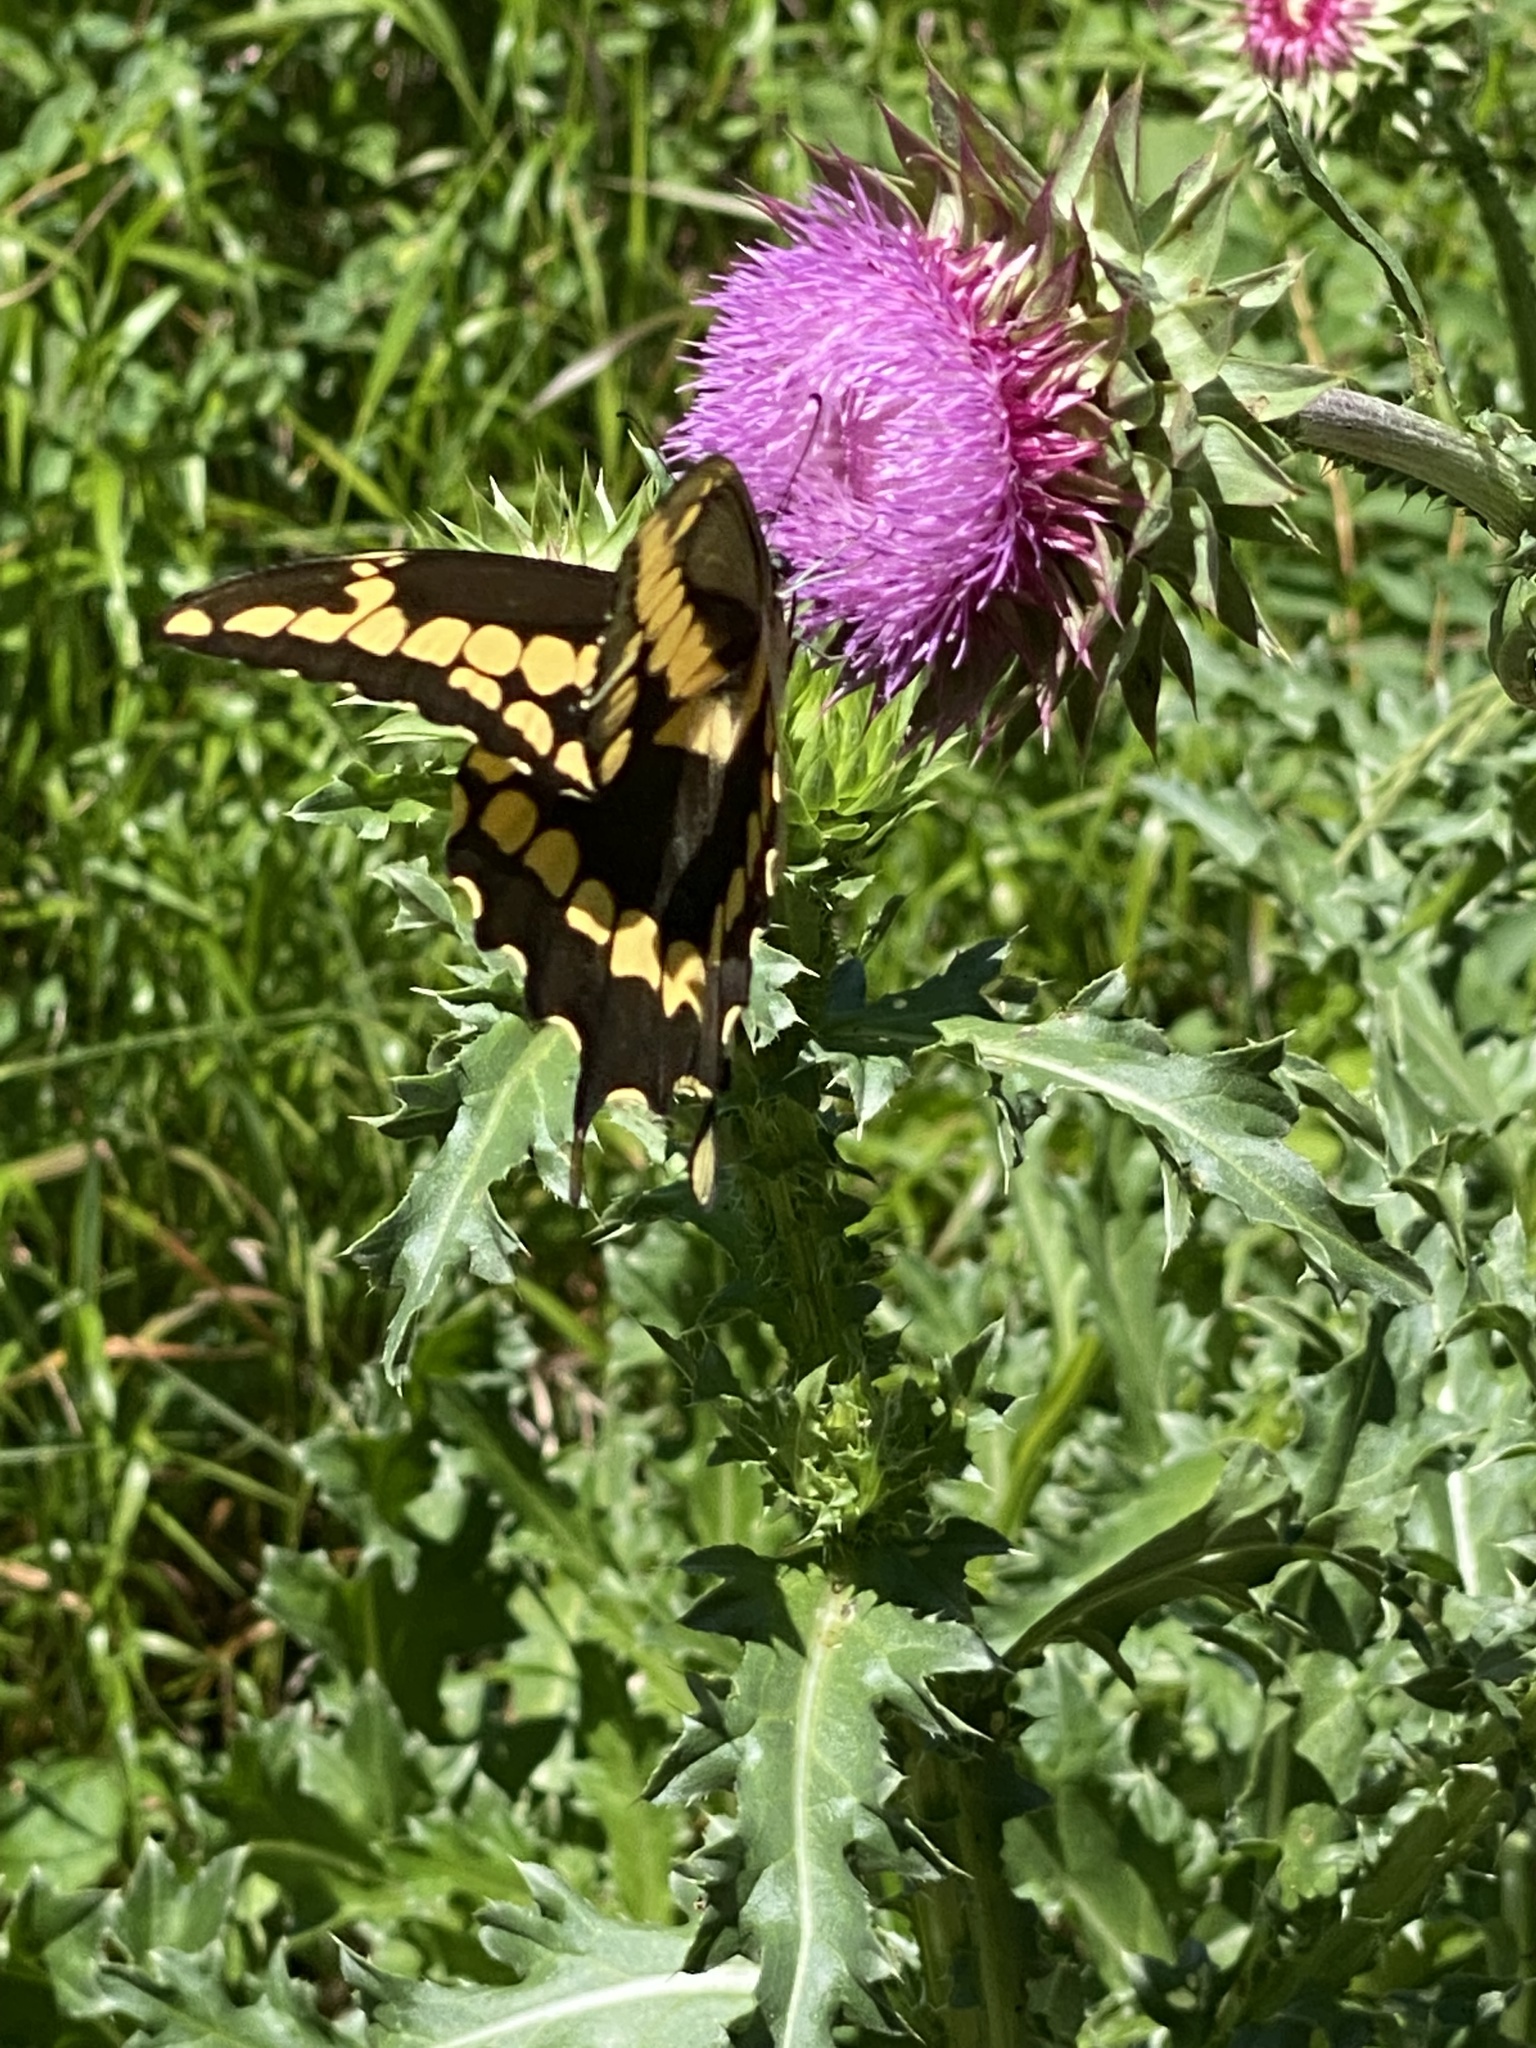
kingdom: Animalia
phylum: Arthropoda
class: Insecta
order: Lepidoptera
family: Papilionidae
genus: Papilio
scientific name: Papilio cresphontes
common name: Giant swallowtail
